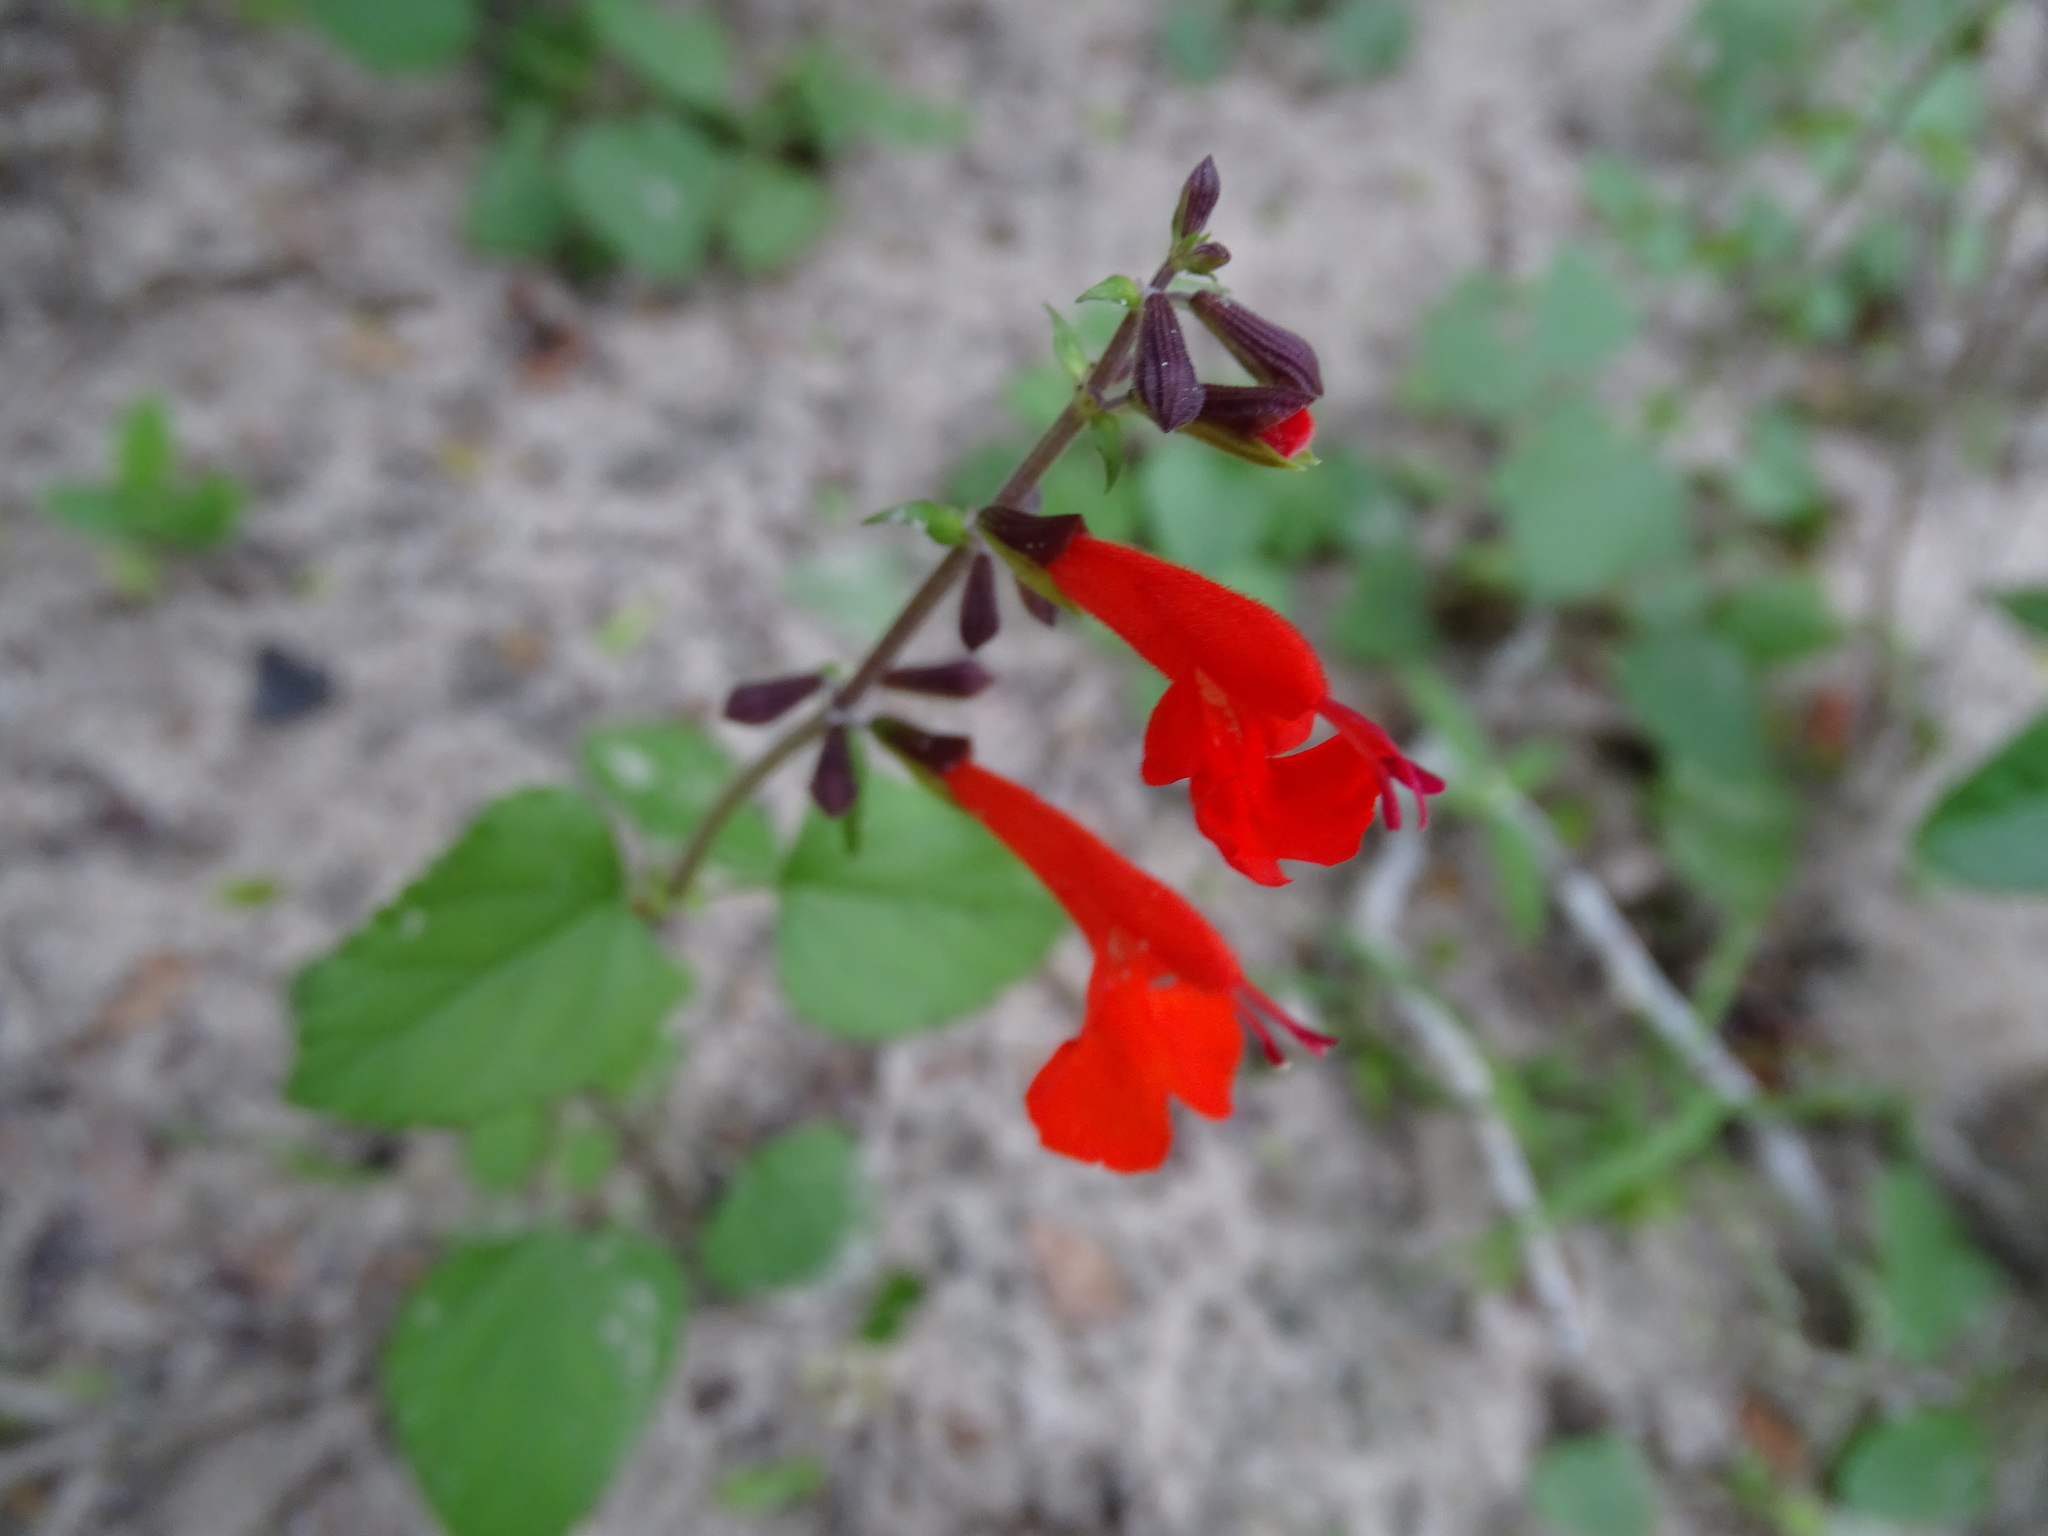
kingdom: Plantae
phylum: Tracheophyta
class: Magnoliopsida
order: Lamiales
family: Lamiaceae
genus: Salvia
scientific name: Salvia coccinea
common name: Blood sage
